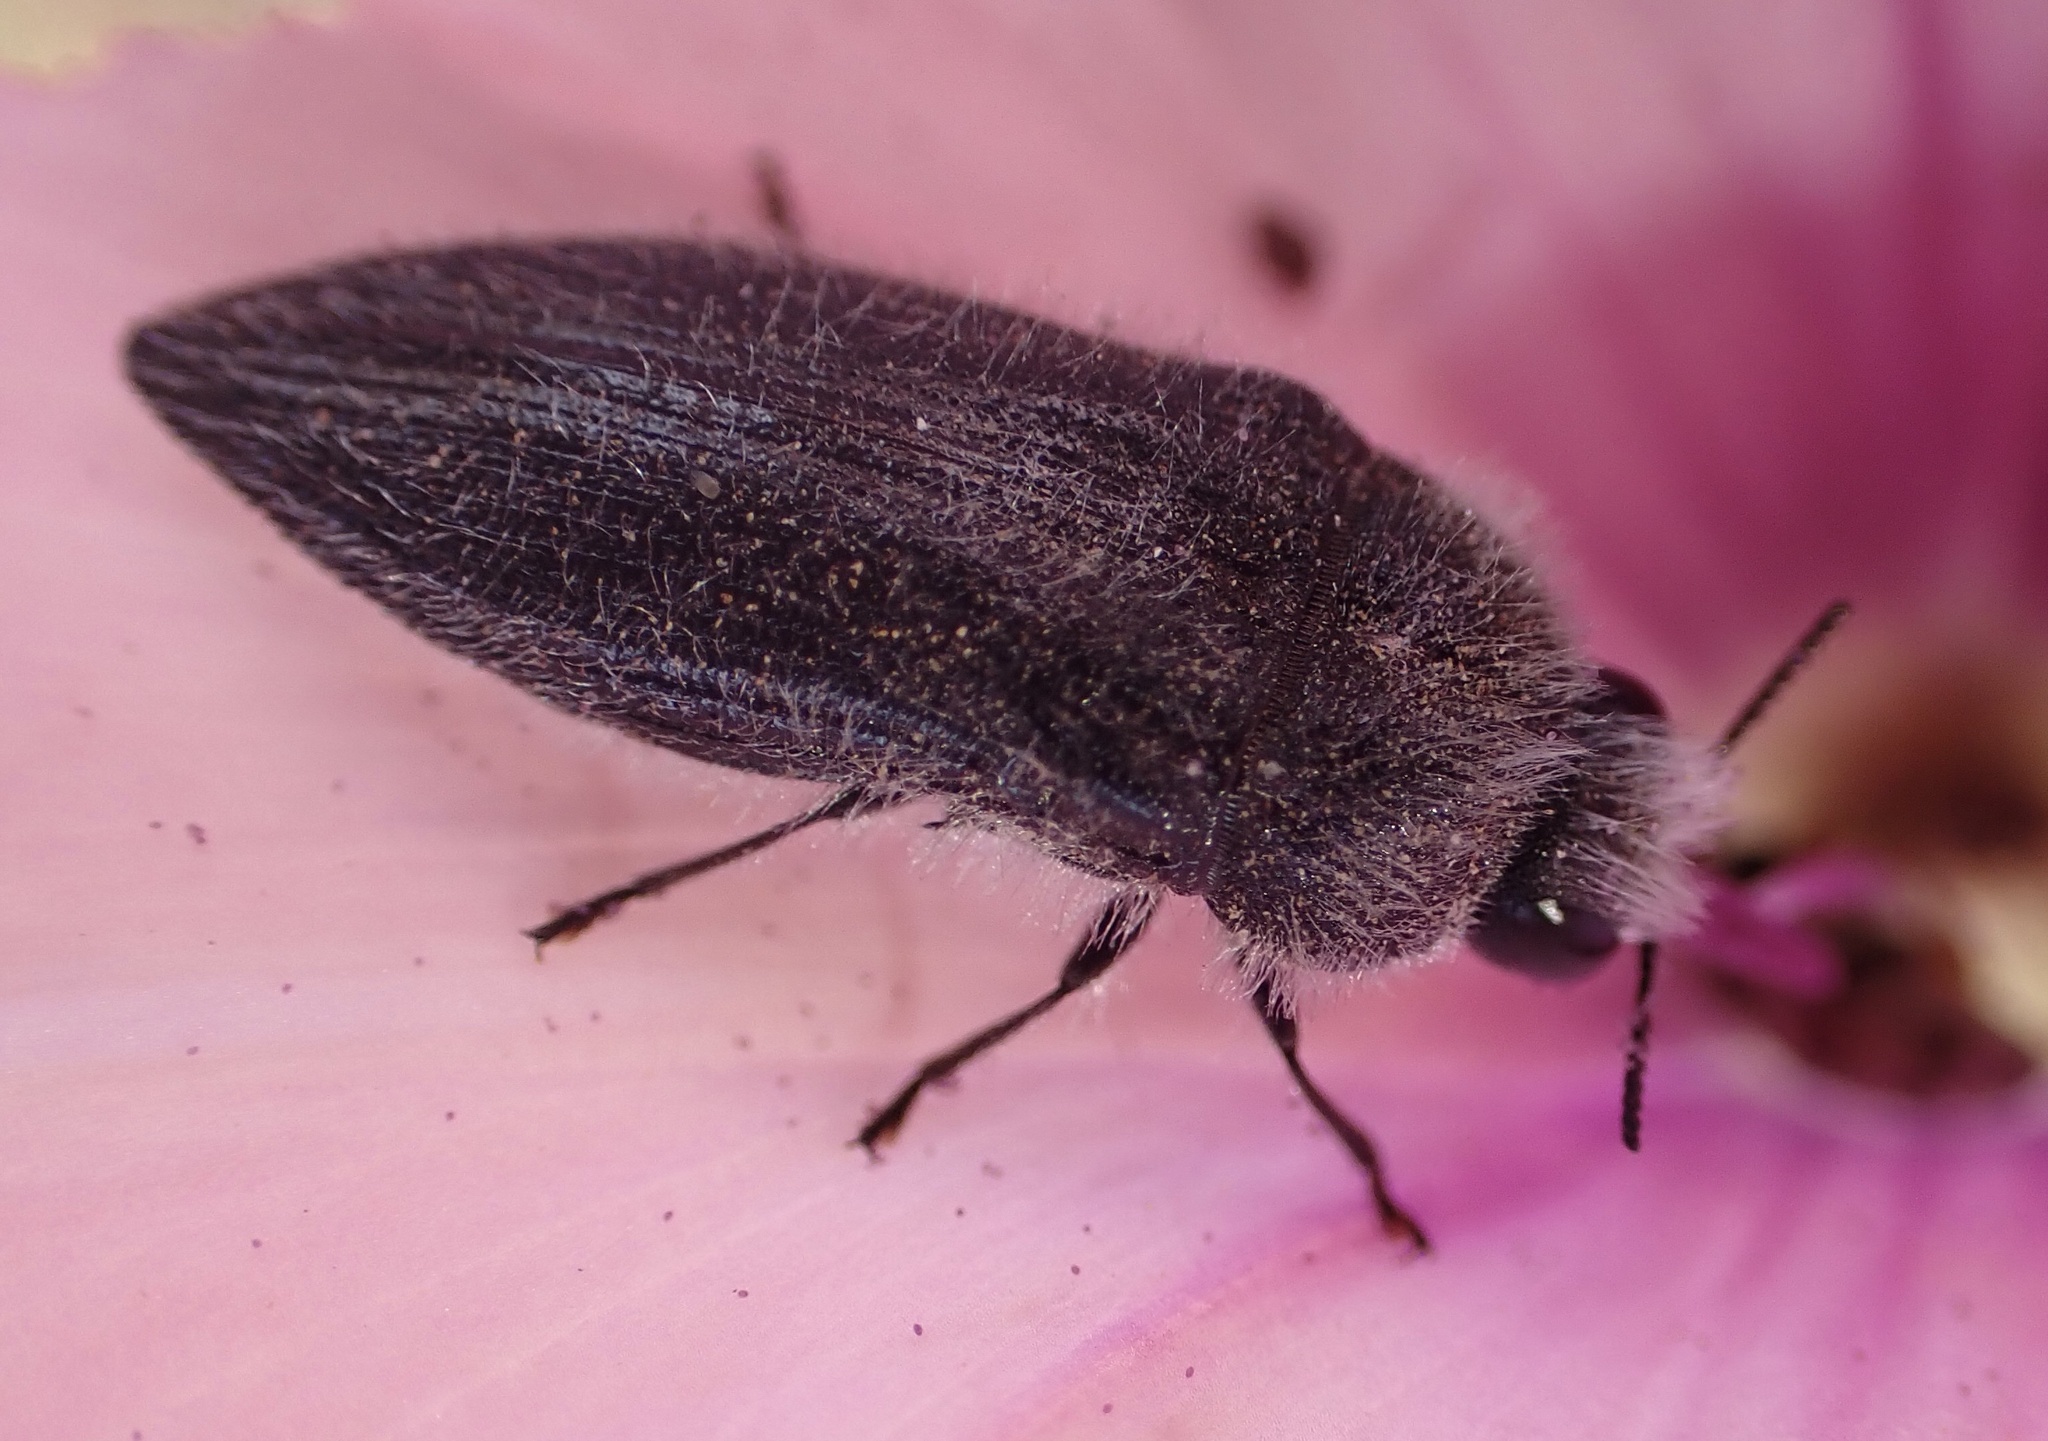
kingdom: Animalia
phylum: Arthropoda
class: Insecta
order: Coleoptera
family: Buprestidae
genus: Acmaeodera
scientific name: Acmaeodera cylindrica
